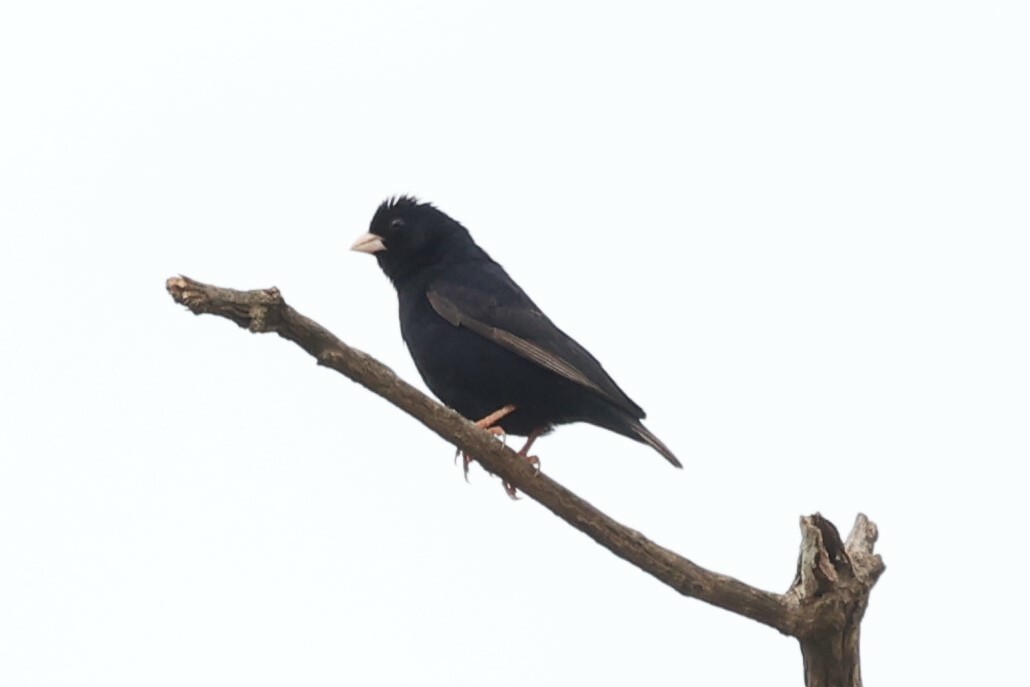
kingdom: Animalia
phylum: Chordata
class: Aves
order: Passeriformes
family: Viduidae
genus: Vidua
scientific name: Vidua chalybeata
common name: Village indigobird
